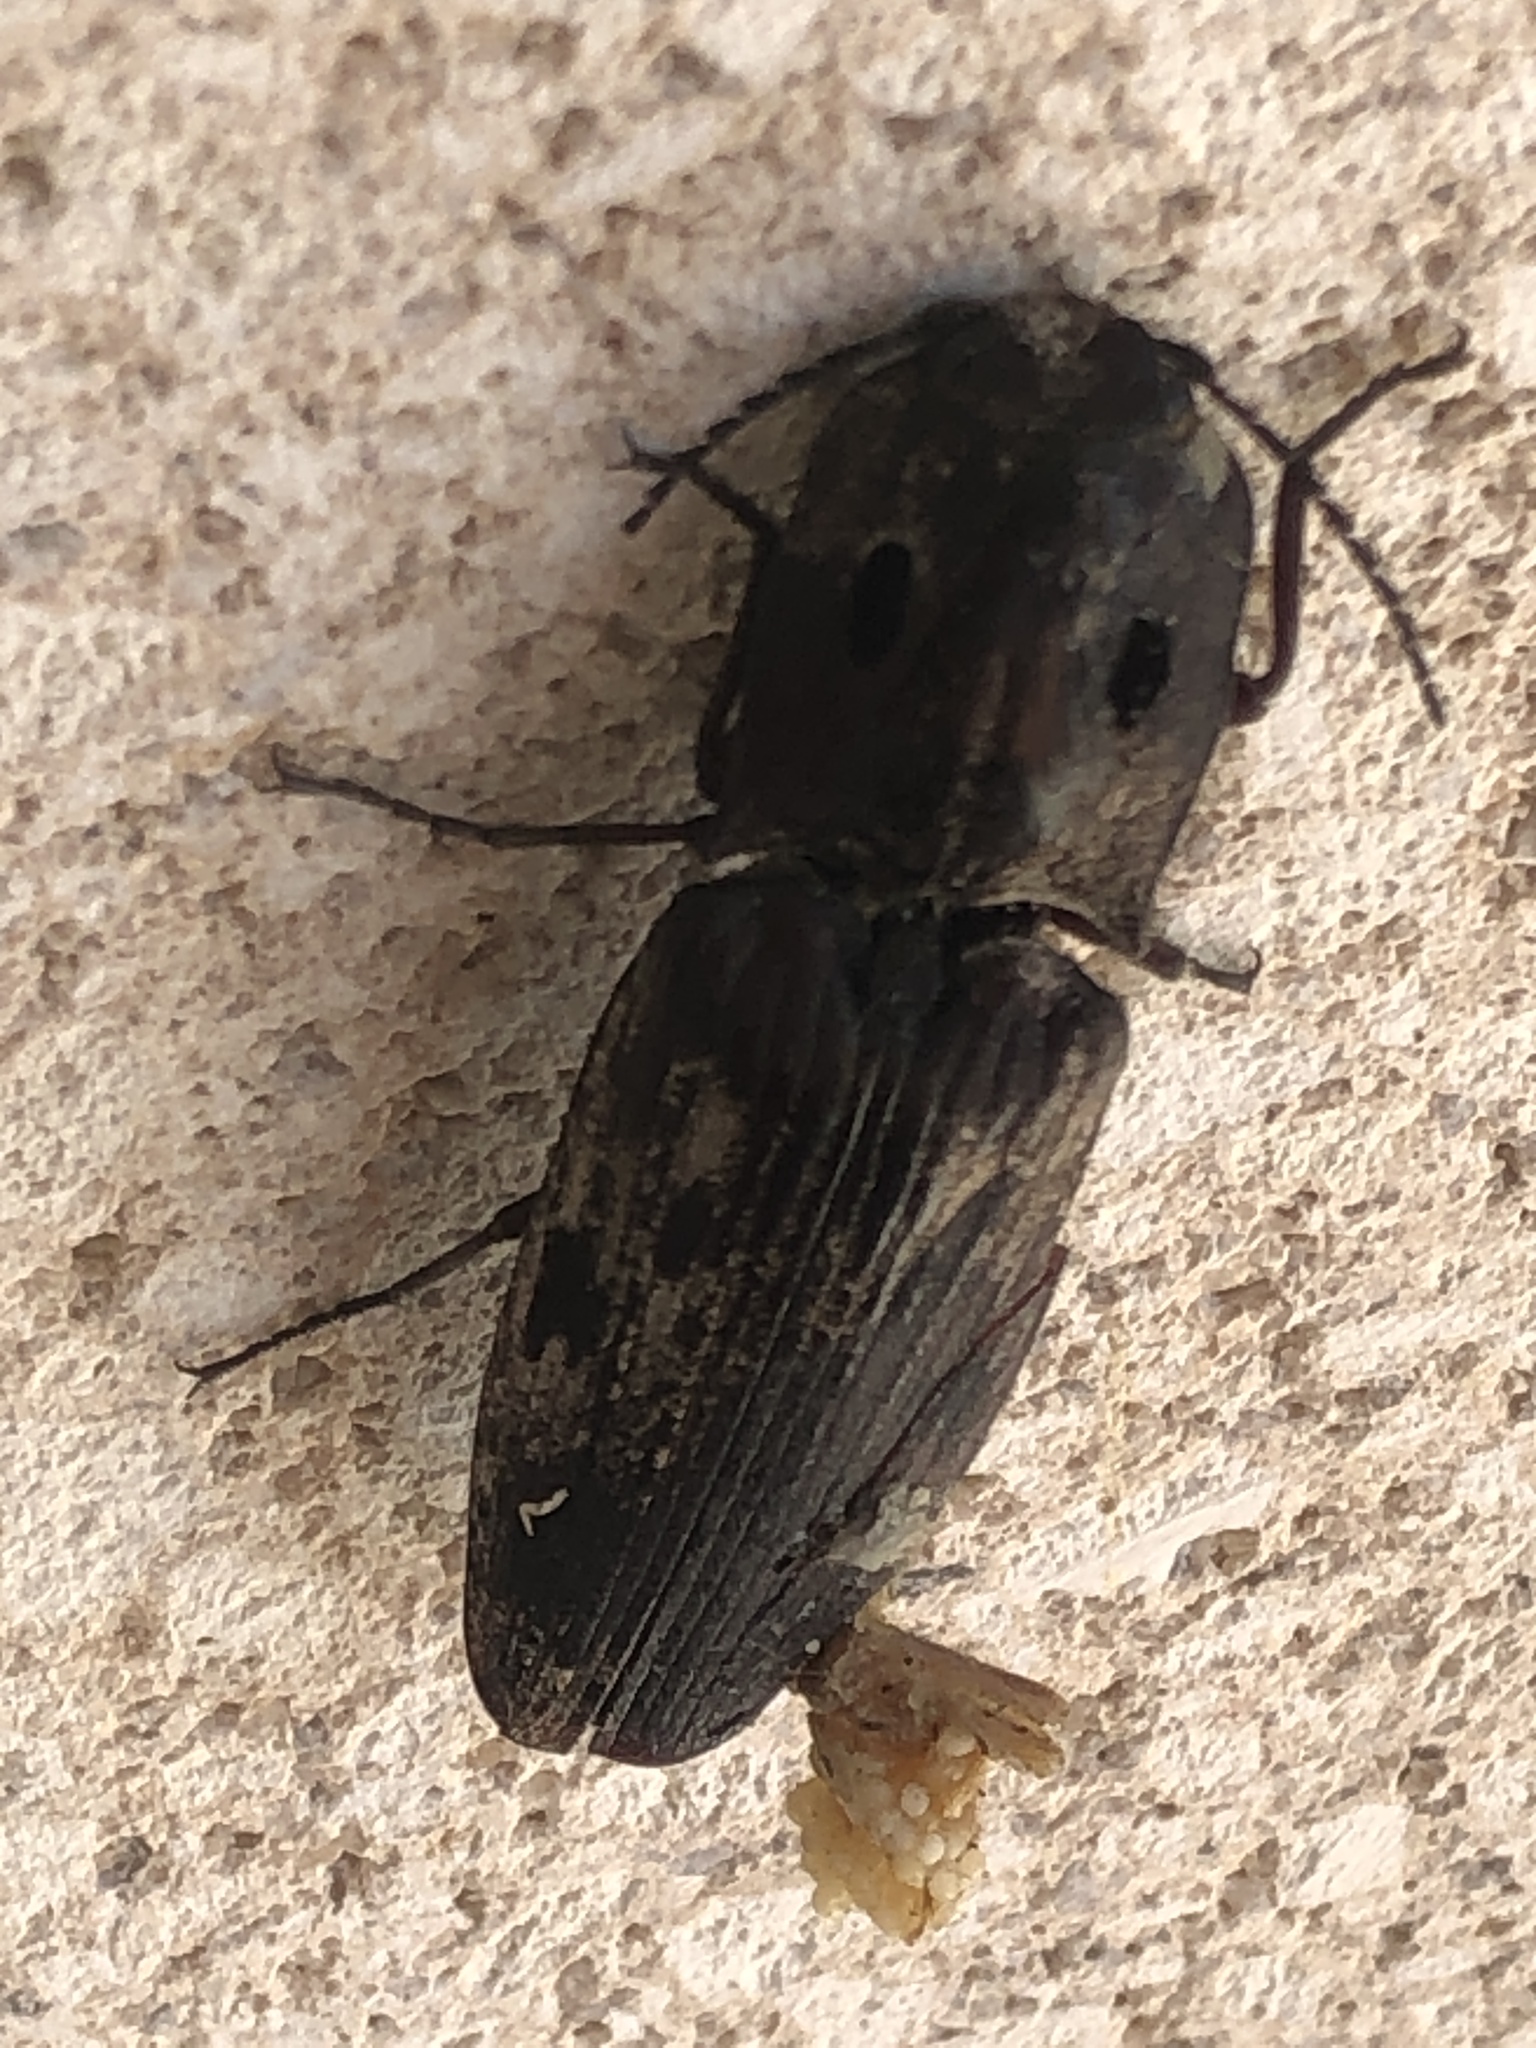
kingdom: Animalia
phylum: Arthropoda
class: Insecta
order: Coleoptera
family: Elateridae
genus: Alaus
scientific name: Alaus myops
